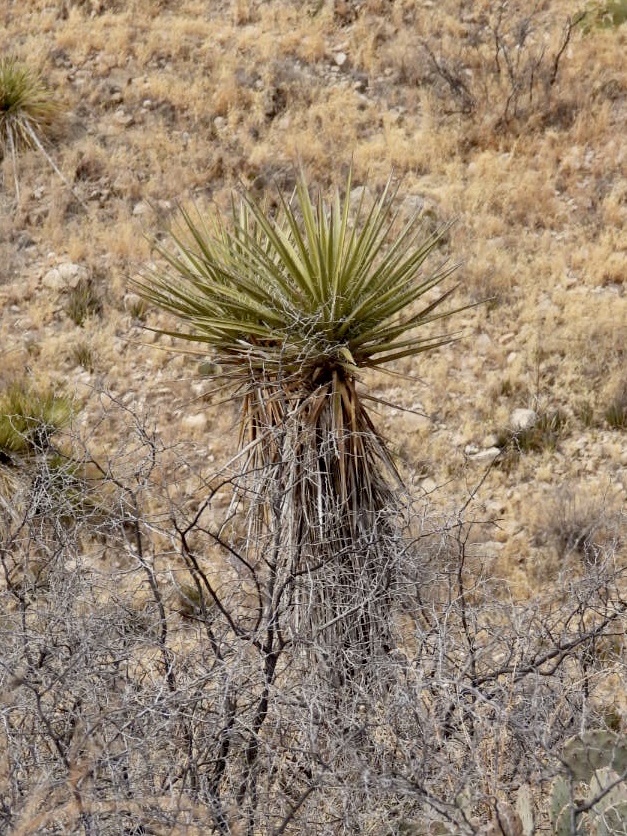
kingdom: Plantae
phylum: Tracheophyta
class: Liliopsida
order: Asparagales
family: Asparagaceae
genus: Yucca
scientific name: Yucca treculiana
